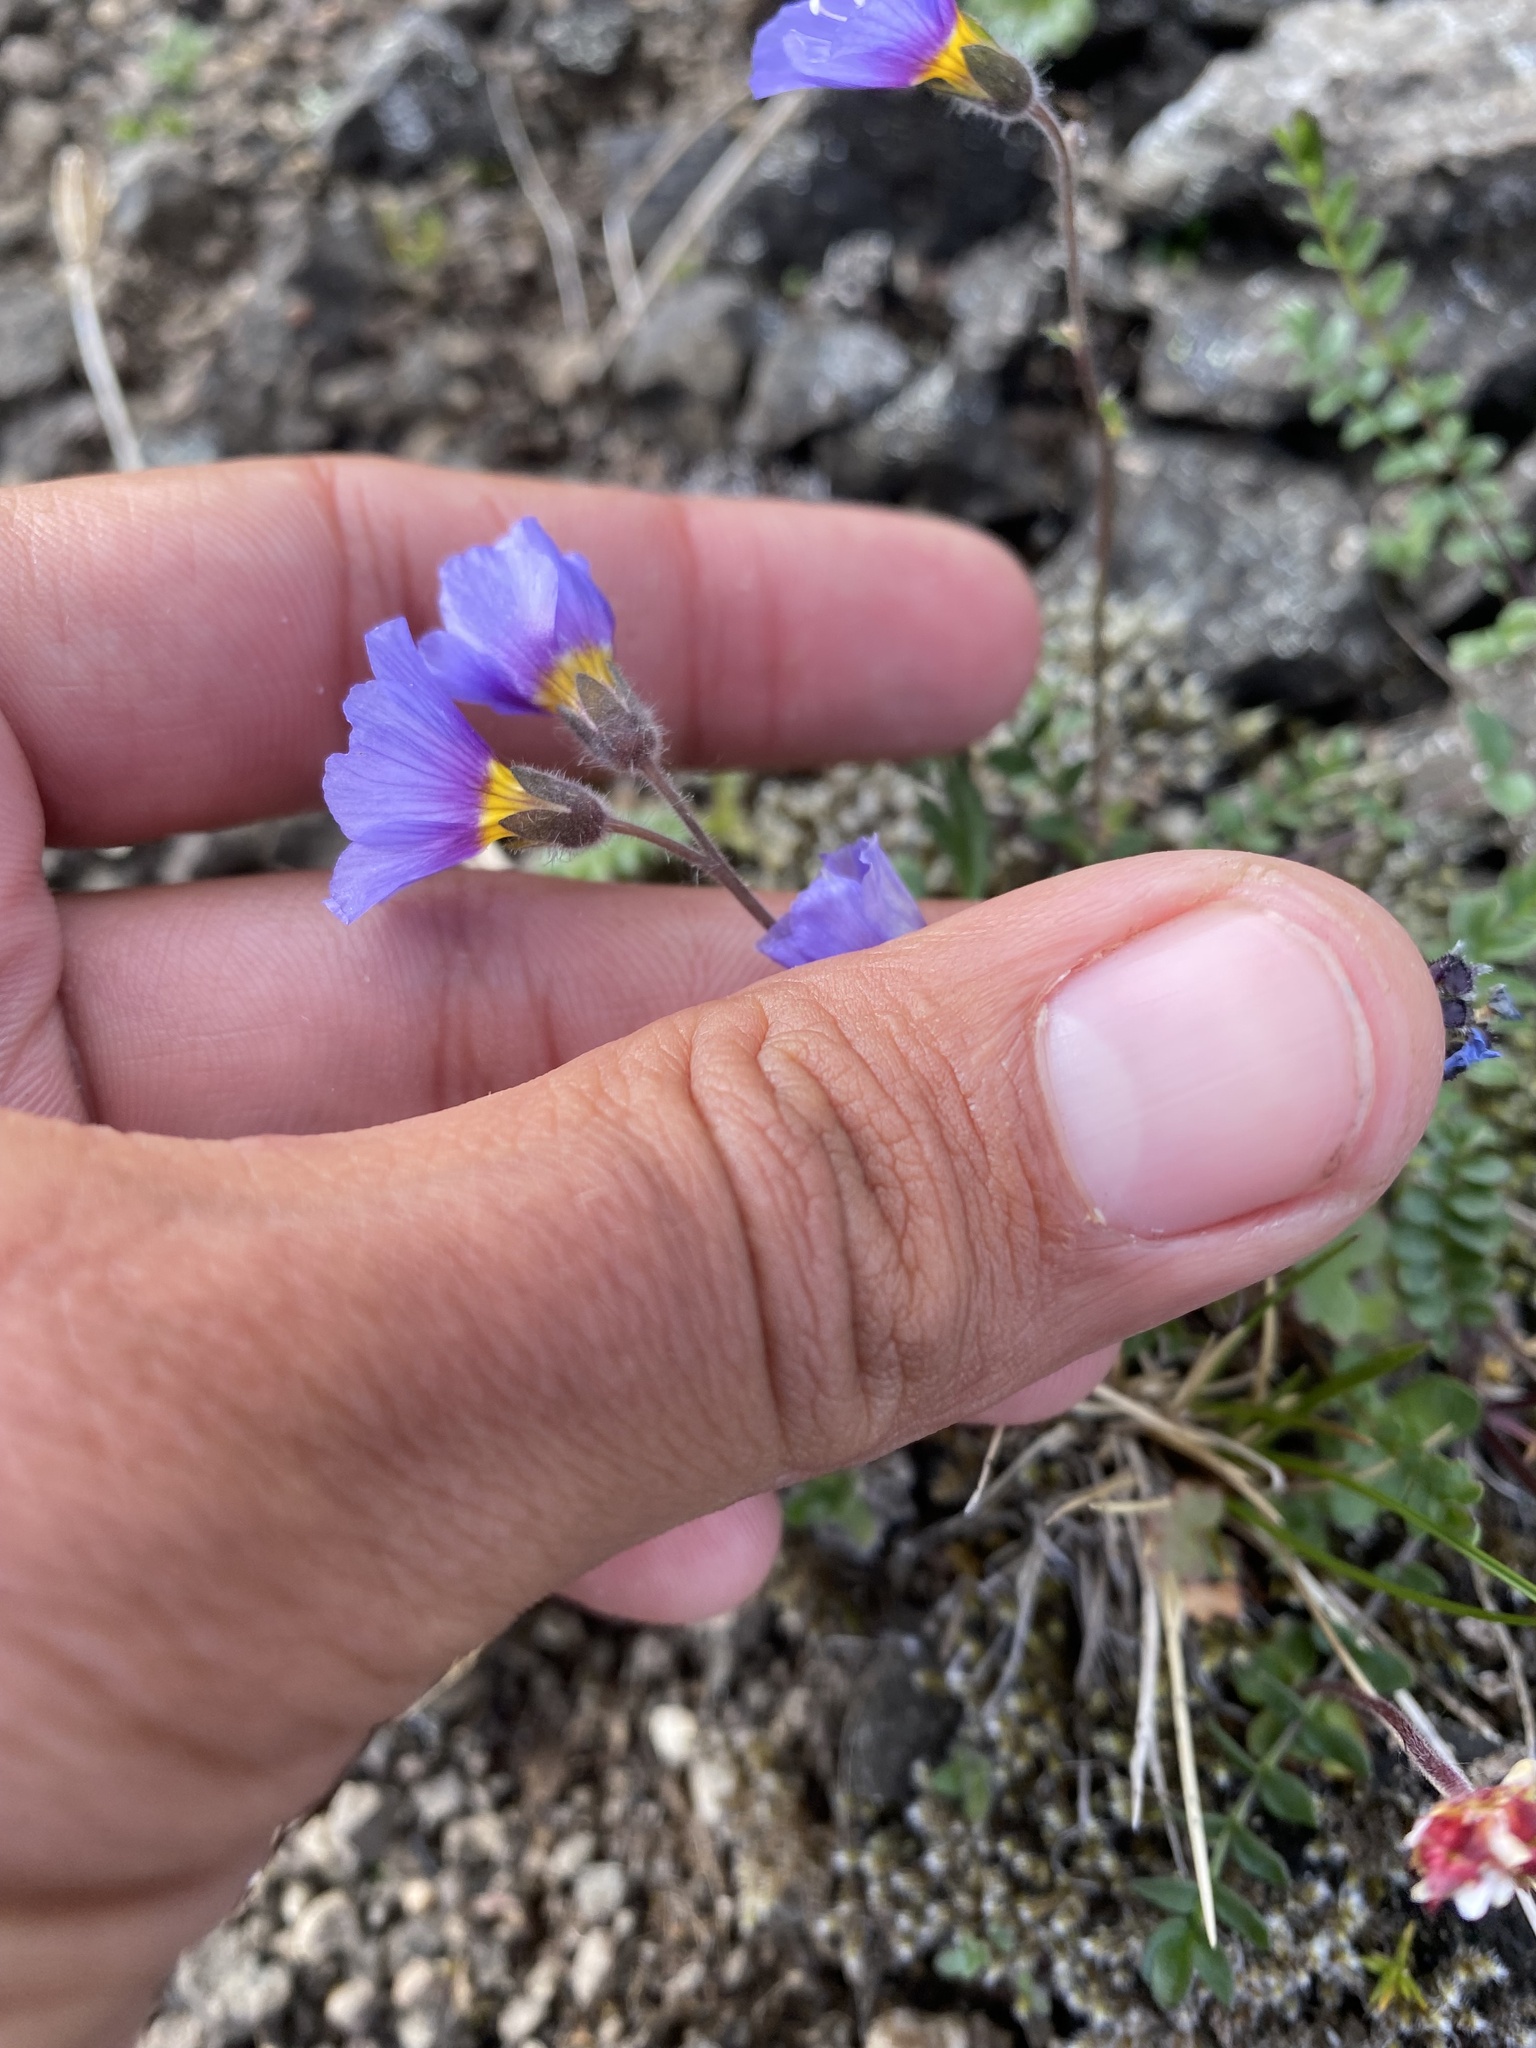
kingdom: Plantae
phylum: Tracheophyta
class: Magnoliopsida
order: Ericales
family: Polemoniaceae
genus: Polemonium
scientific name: Polemonium boreale
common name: Boreal jacob's-ladder
